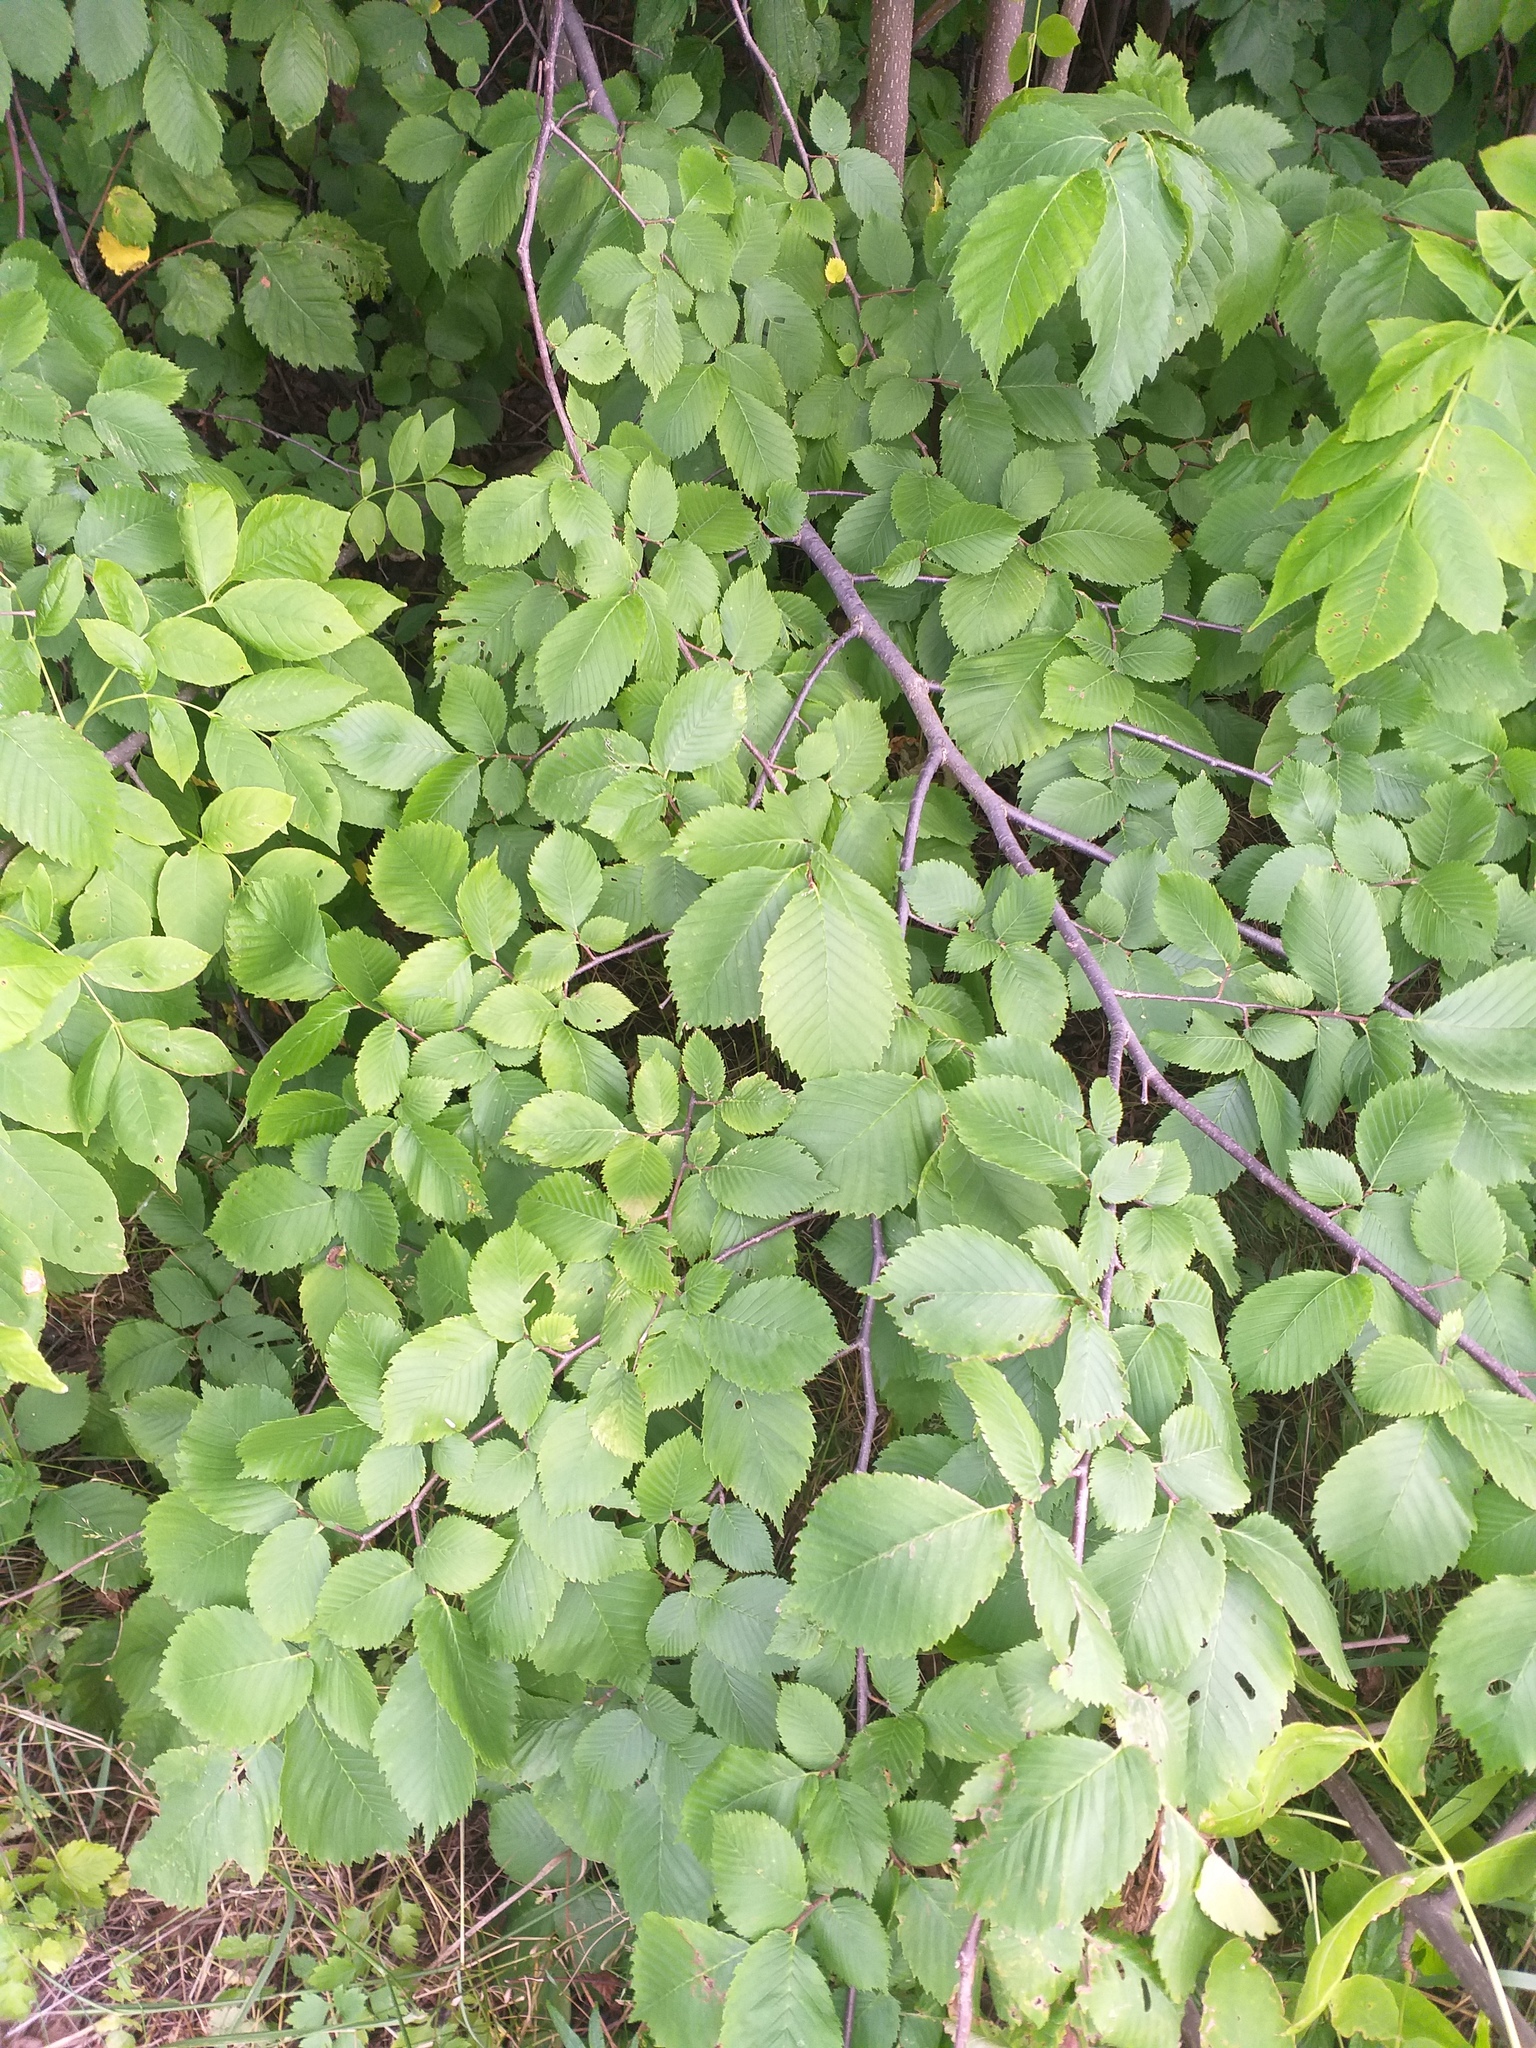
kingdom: Plantae
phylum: Tracheophyta
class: Magnoliopsida
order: Rosales
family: Ulmaceae
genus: Ulmus
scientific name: Ulmus laevis
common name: European white-elm
